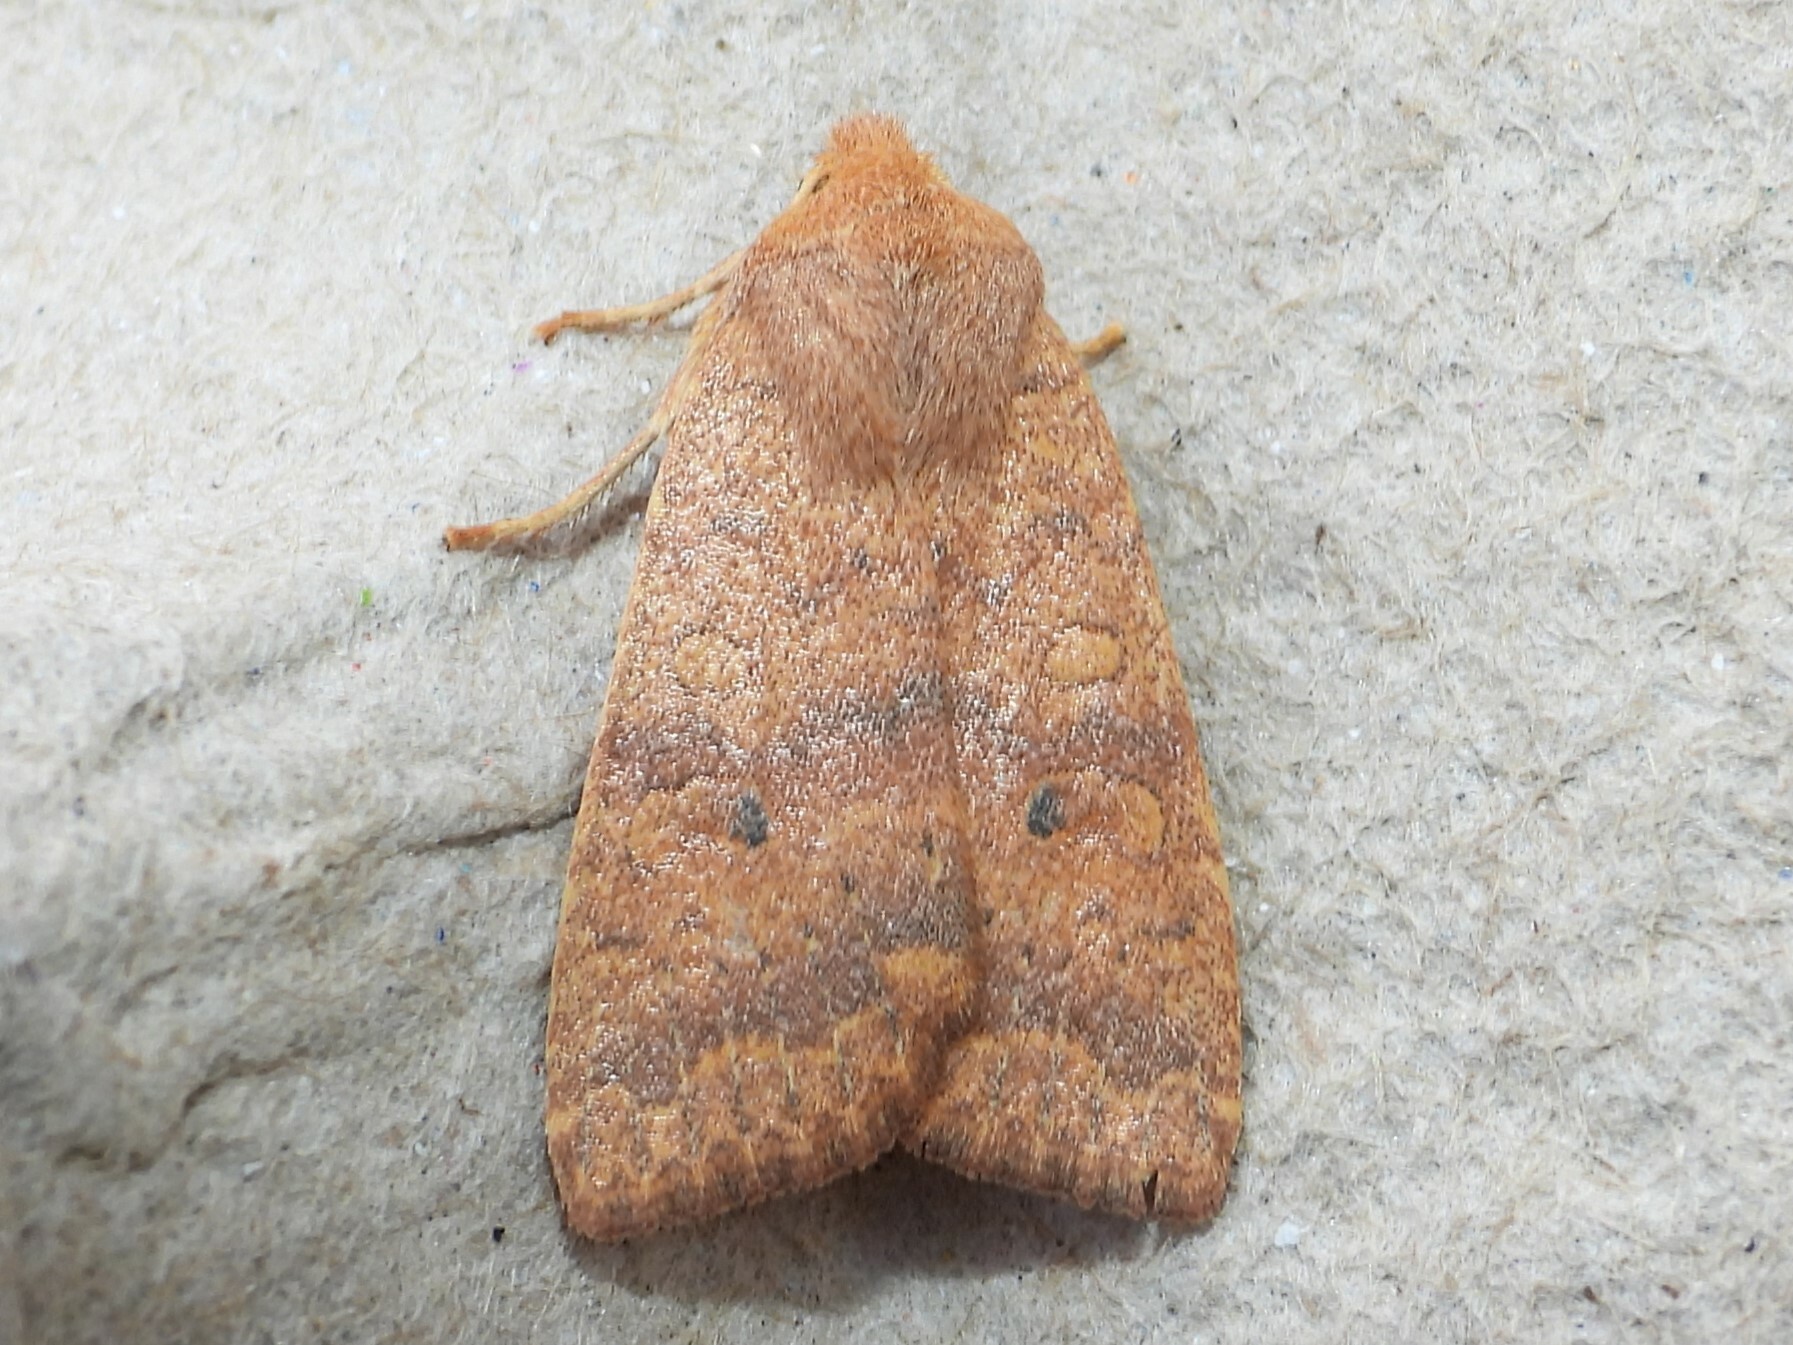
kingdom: Animalia
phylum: Arthropoda
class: Insecta
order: Lepidoptera
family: Noctuidae
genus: Agrochola
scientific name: Agrochola bicolorago
